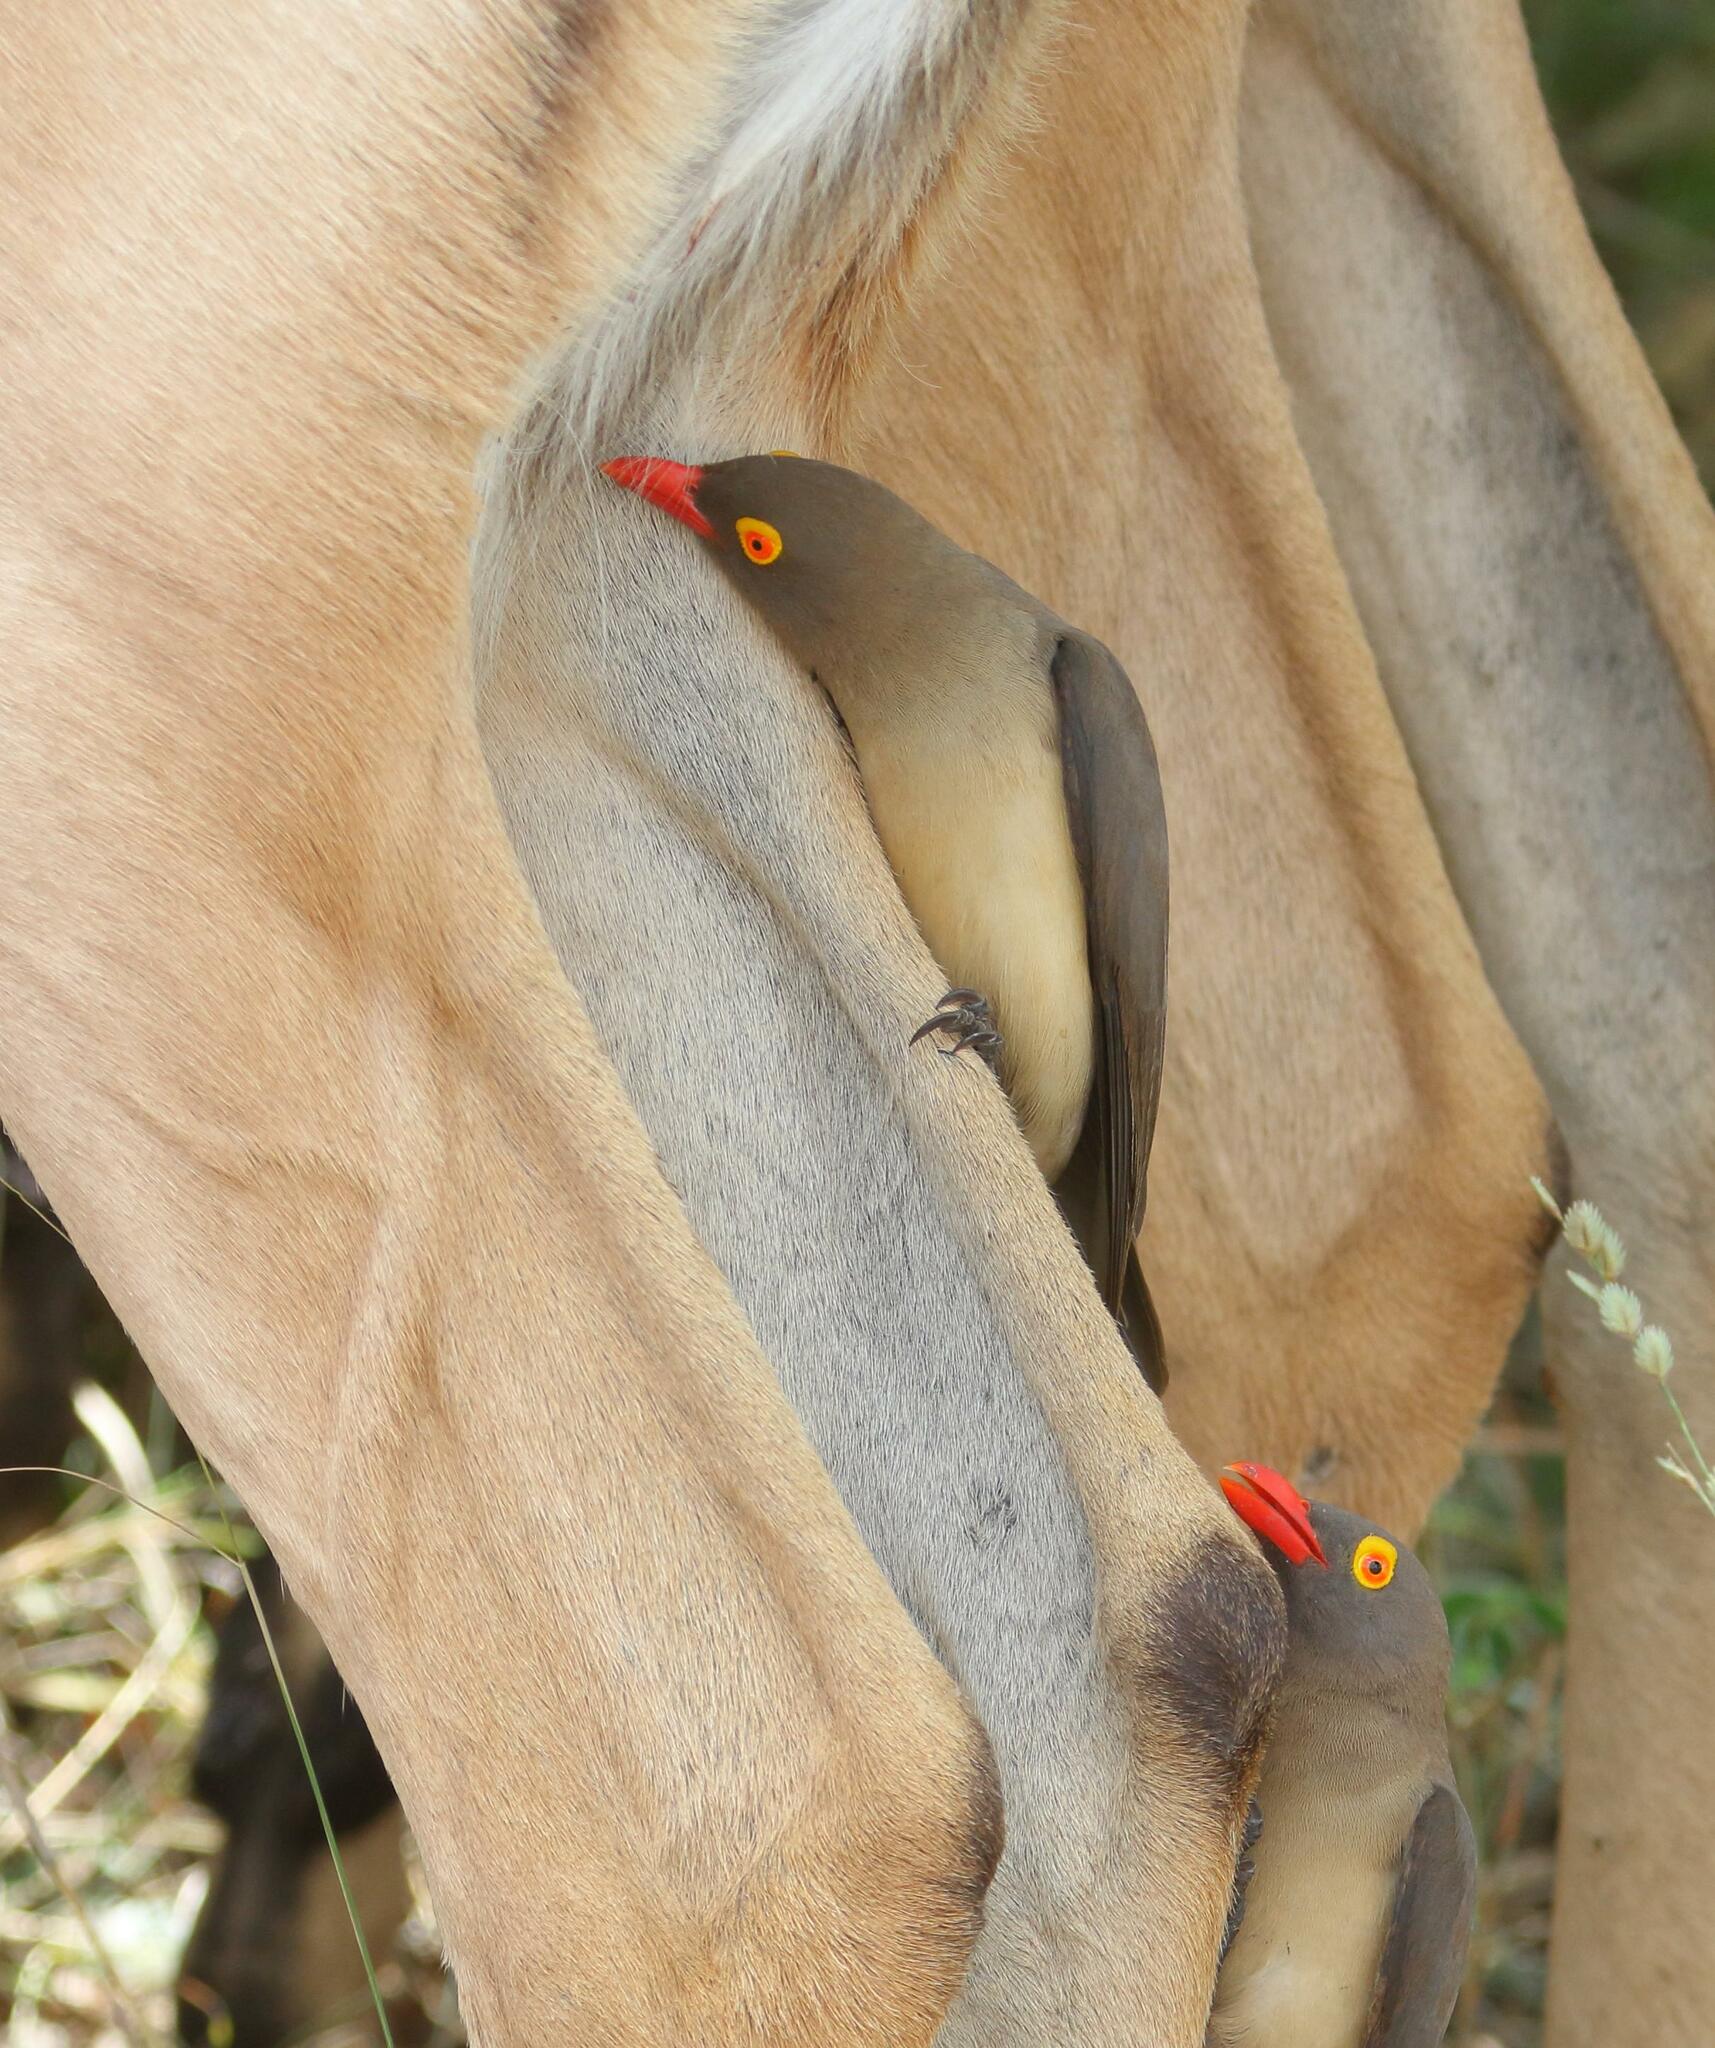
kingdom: Animalia
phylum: Chordata
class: Aves
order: Passeriformes
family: Buphagidae
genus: Buphagus
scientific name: Buphagus erythrorhynchus
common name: Red-billed oxpecker
